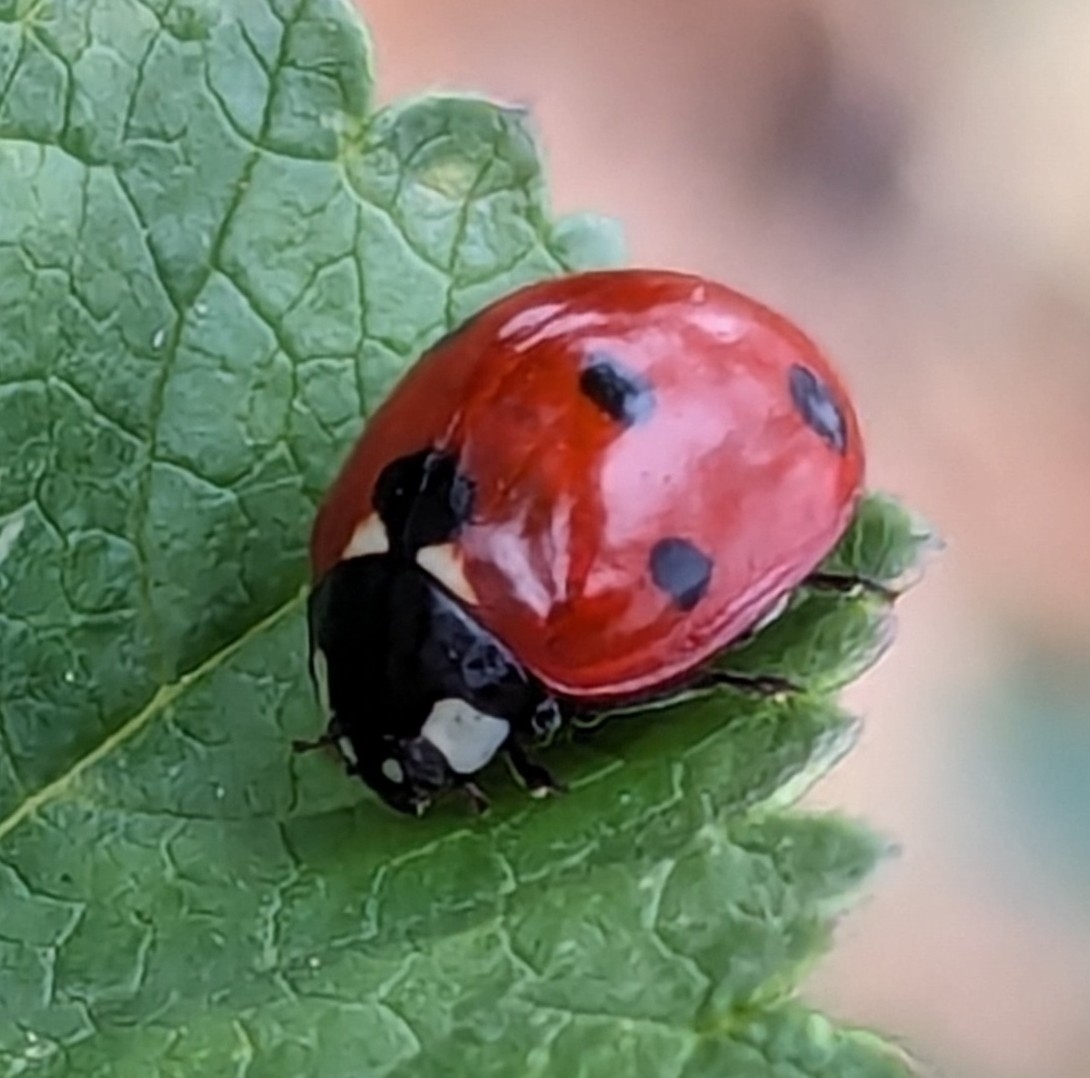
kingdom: Animalia
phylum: Arthropoda
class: Insecta
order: Coleoptera
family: Coccinellidae
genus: Coccinella
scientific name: Coccinella septempunctata
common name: Sevenspotted lady beetle
